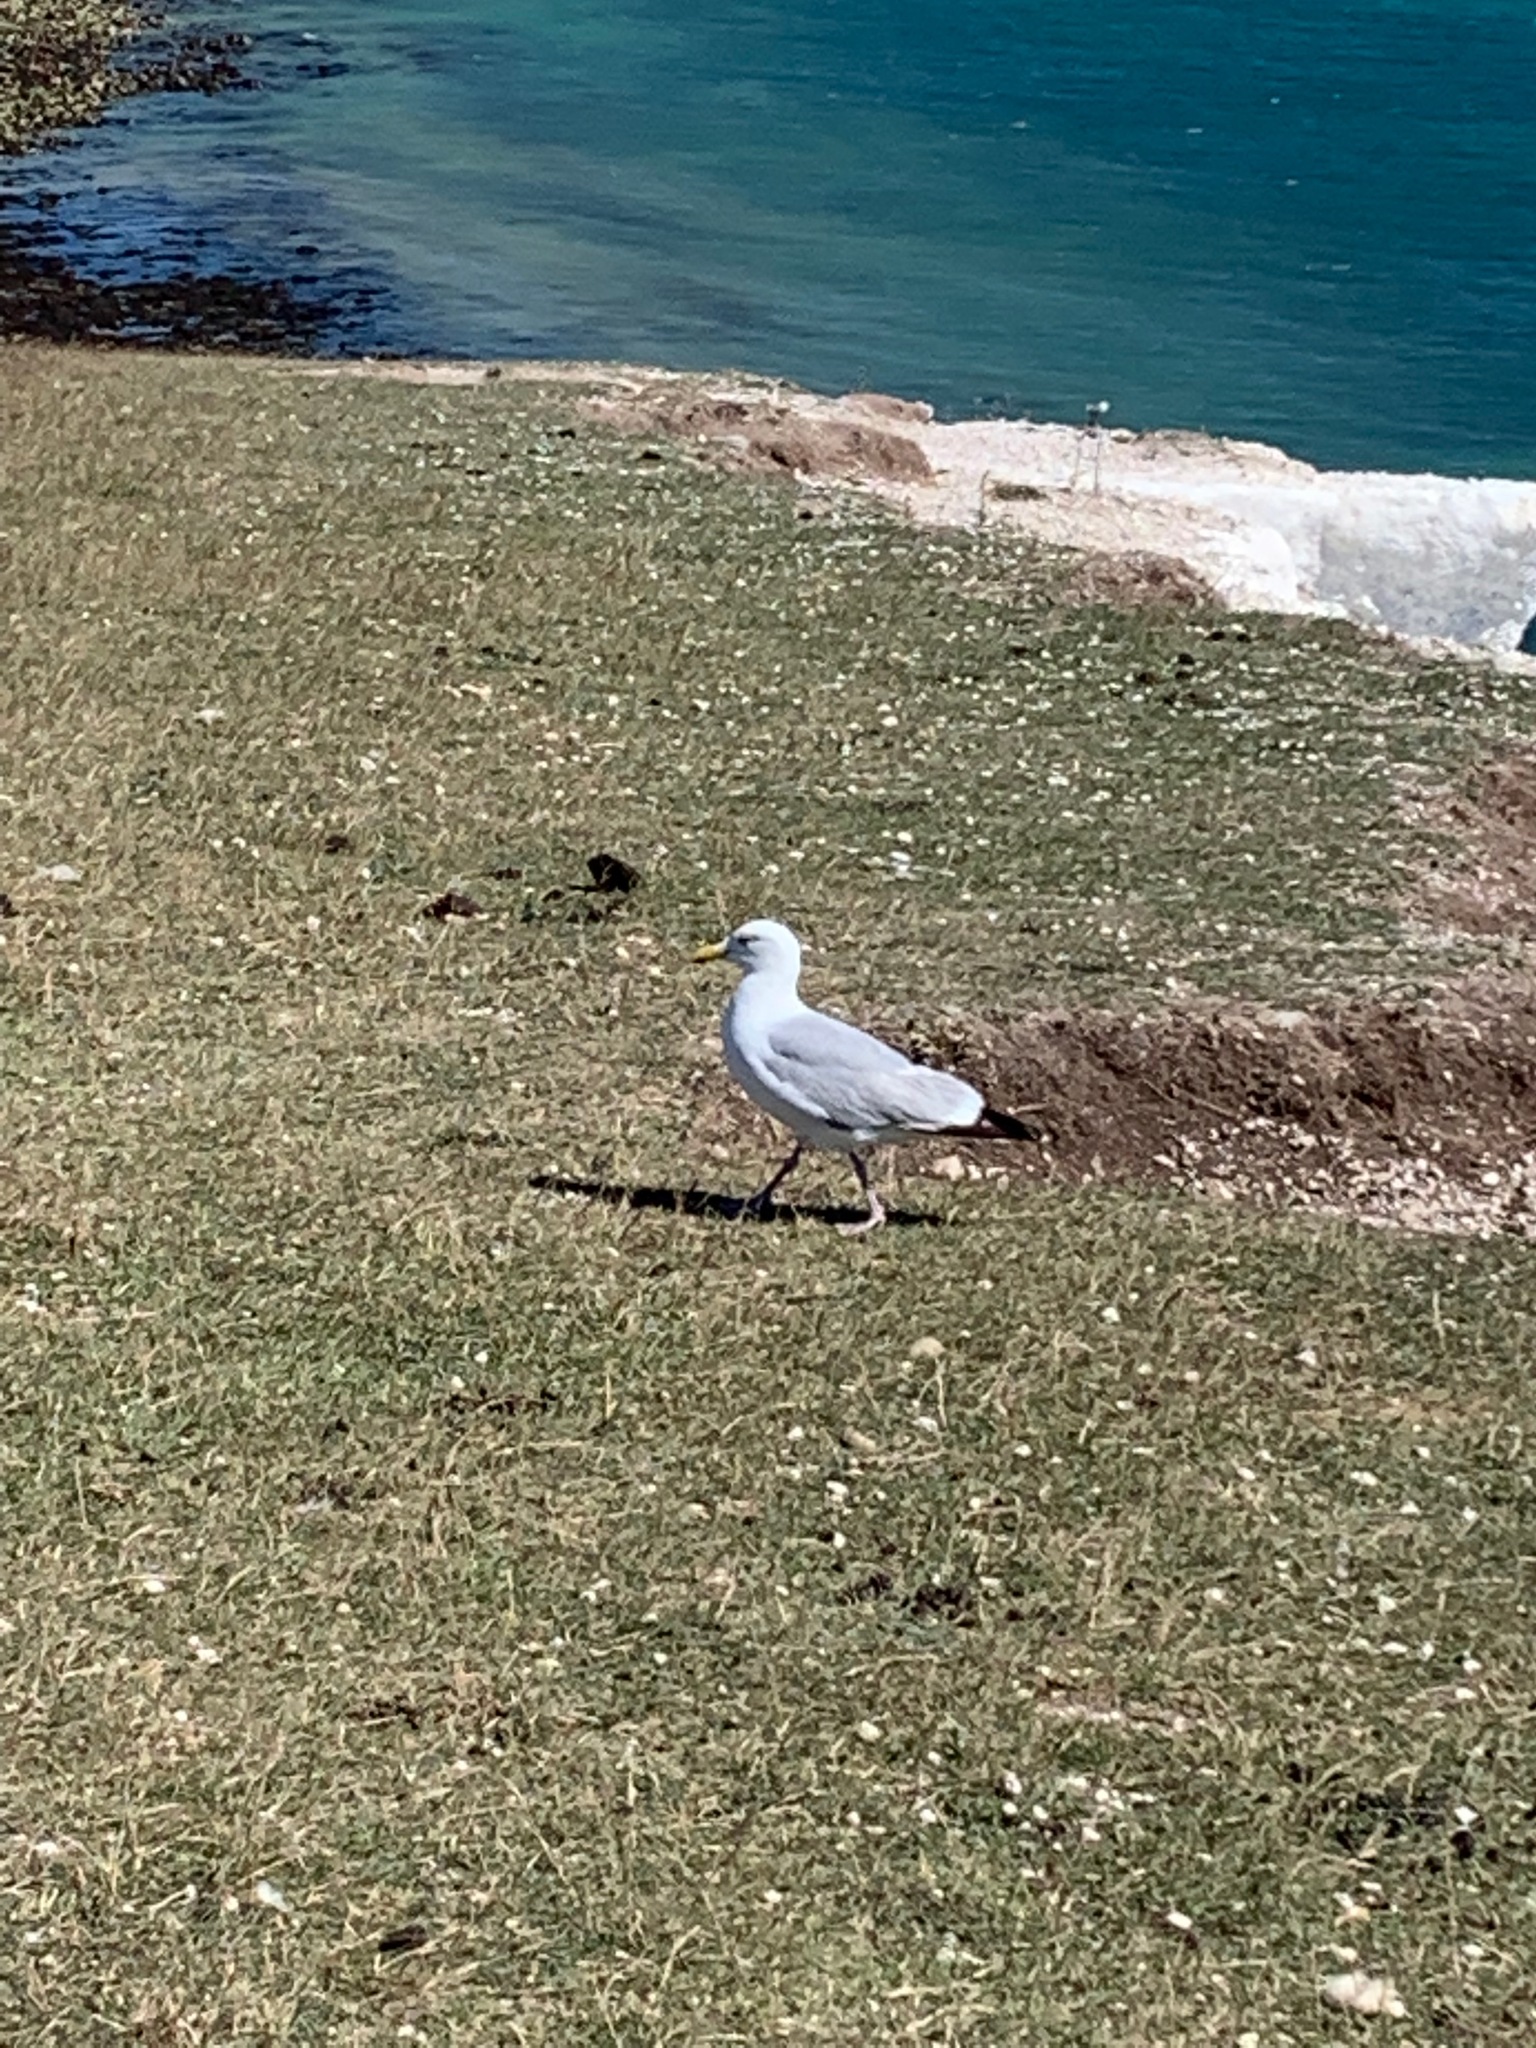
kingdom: Animalia
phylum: Chordata
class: Aves
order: Charadriiformes
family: Laridae
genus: Larus
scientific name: Larus argentatus
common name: Herring gull
